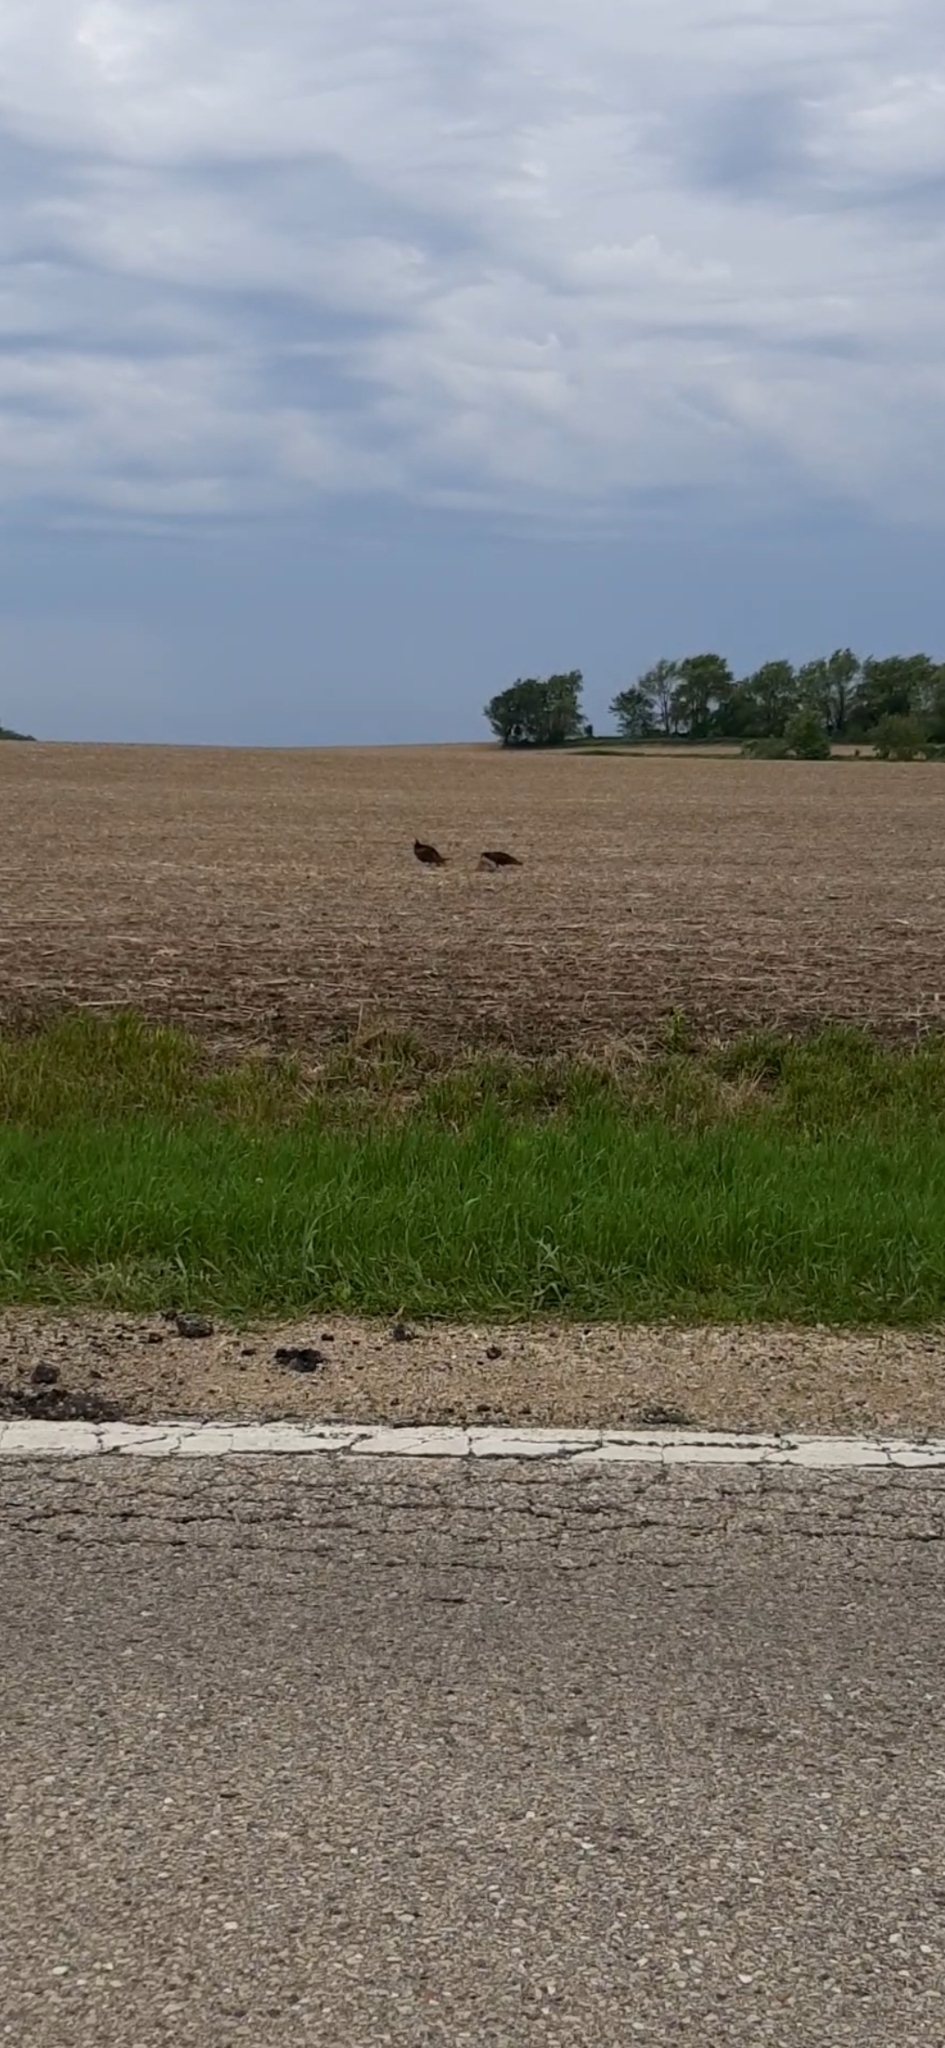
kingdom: Animalia
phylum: Chordata
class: Aves
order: Accipitriformes
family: Cathartidae
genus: Cathartes
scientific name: Cathartes aura
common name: Turkey vulture
